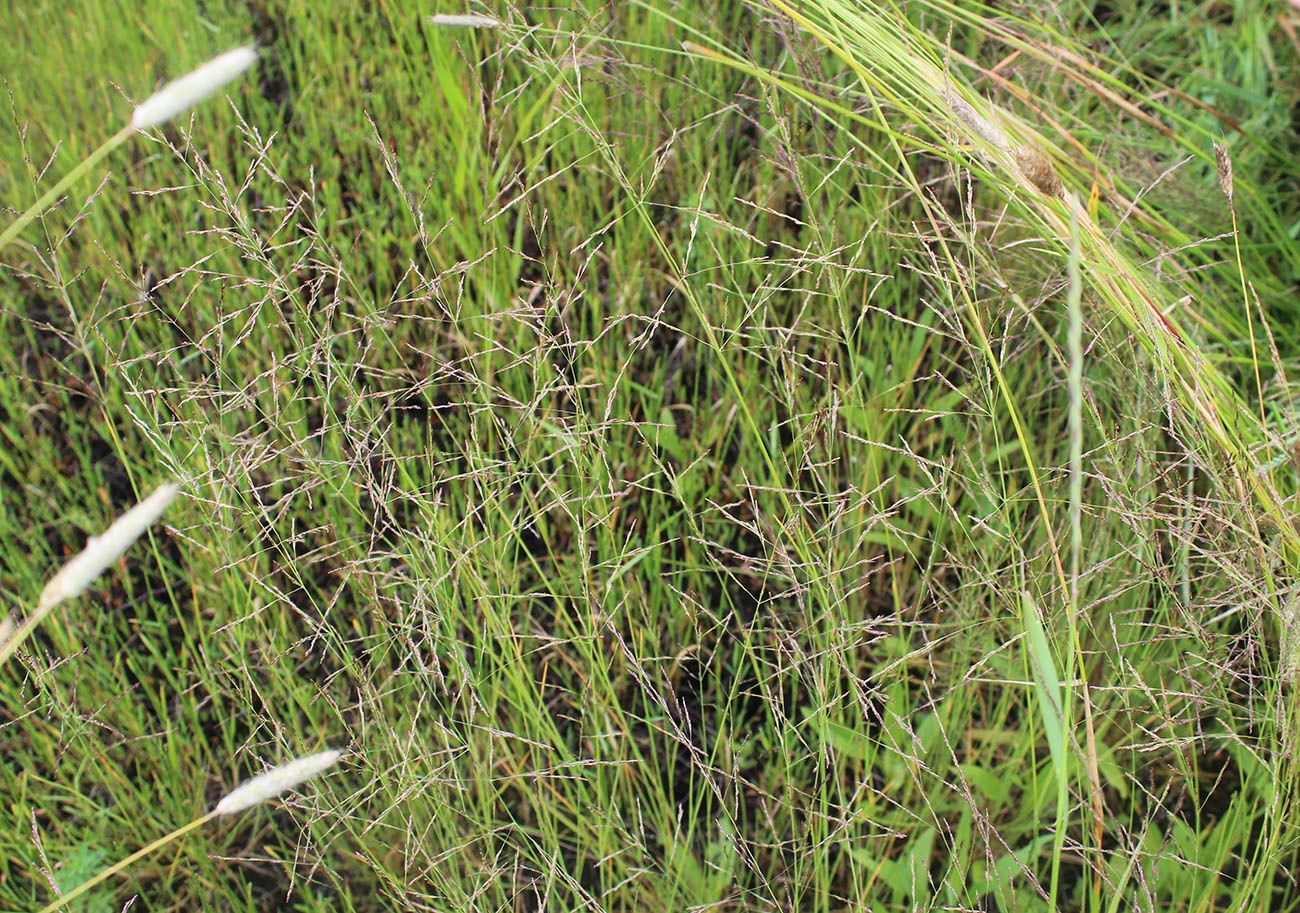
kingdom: Plantae
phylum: Tracheophyta
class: Liliopsida
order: Poales
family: Poaceae
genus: Puccinellia
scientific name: Puccinellia dolicholepis
